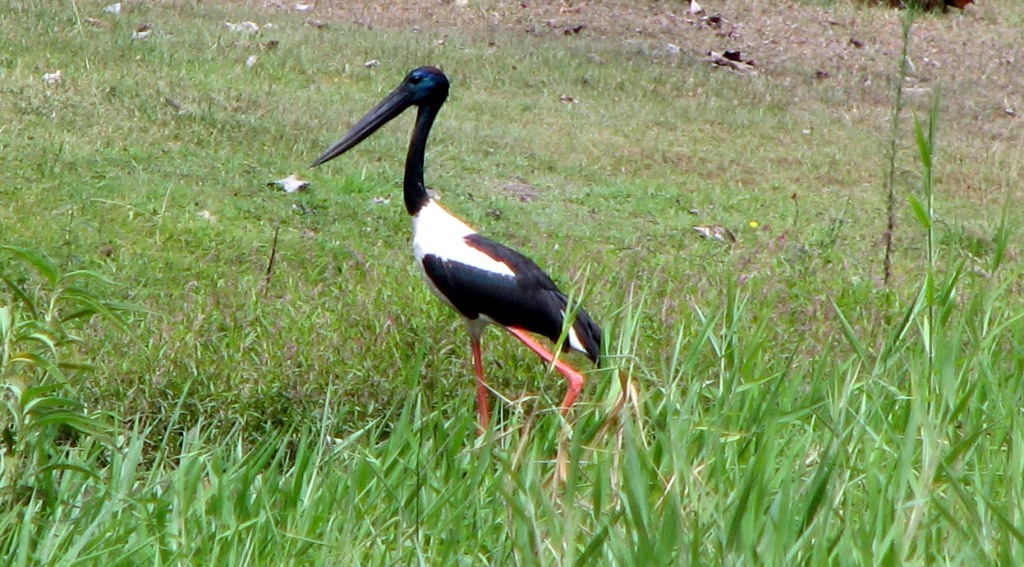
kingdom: Animalia
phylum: Chordata
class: Aves
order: Ciconiiformes
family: Ciconiidae
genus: Ephippiorhynchus
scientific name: Ephippiorhynchus asiaticus
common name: Black-necked stork
